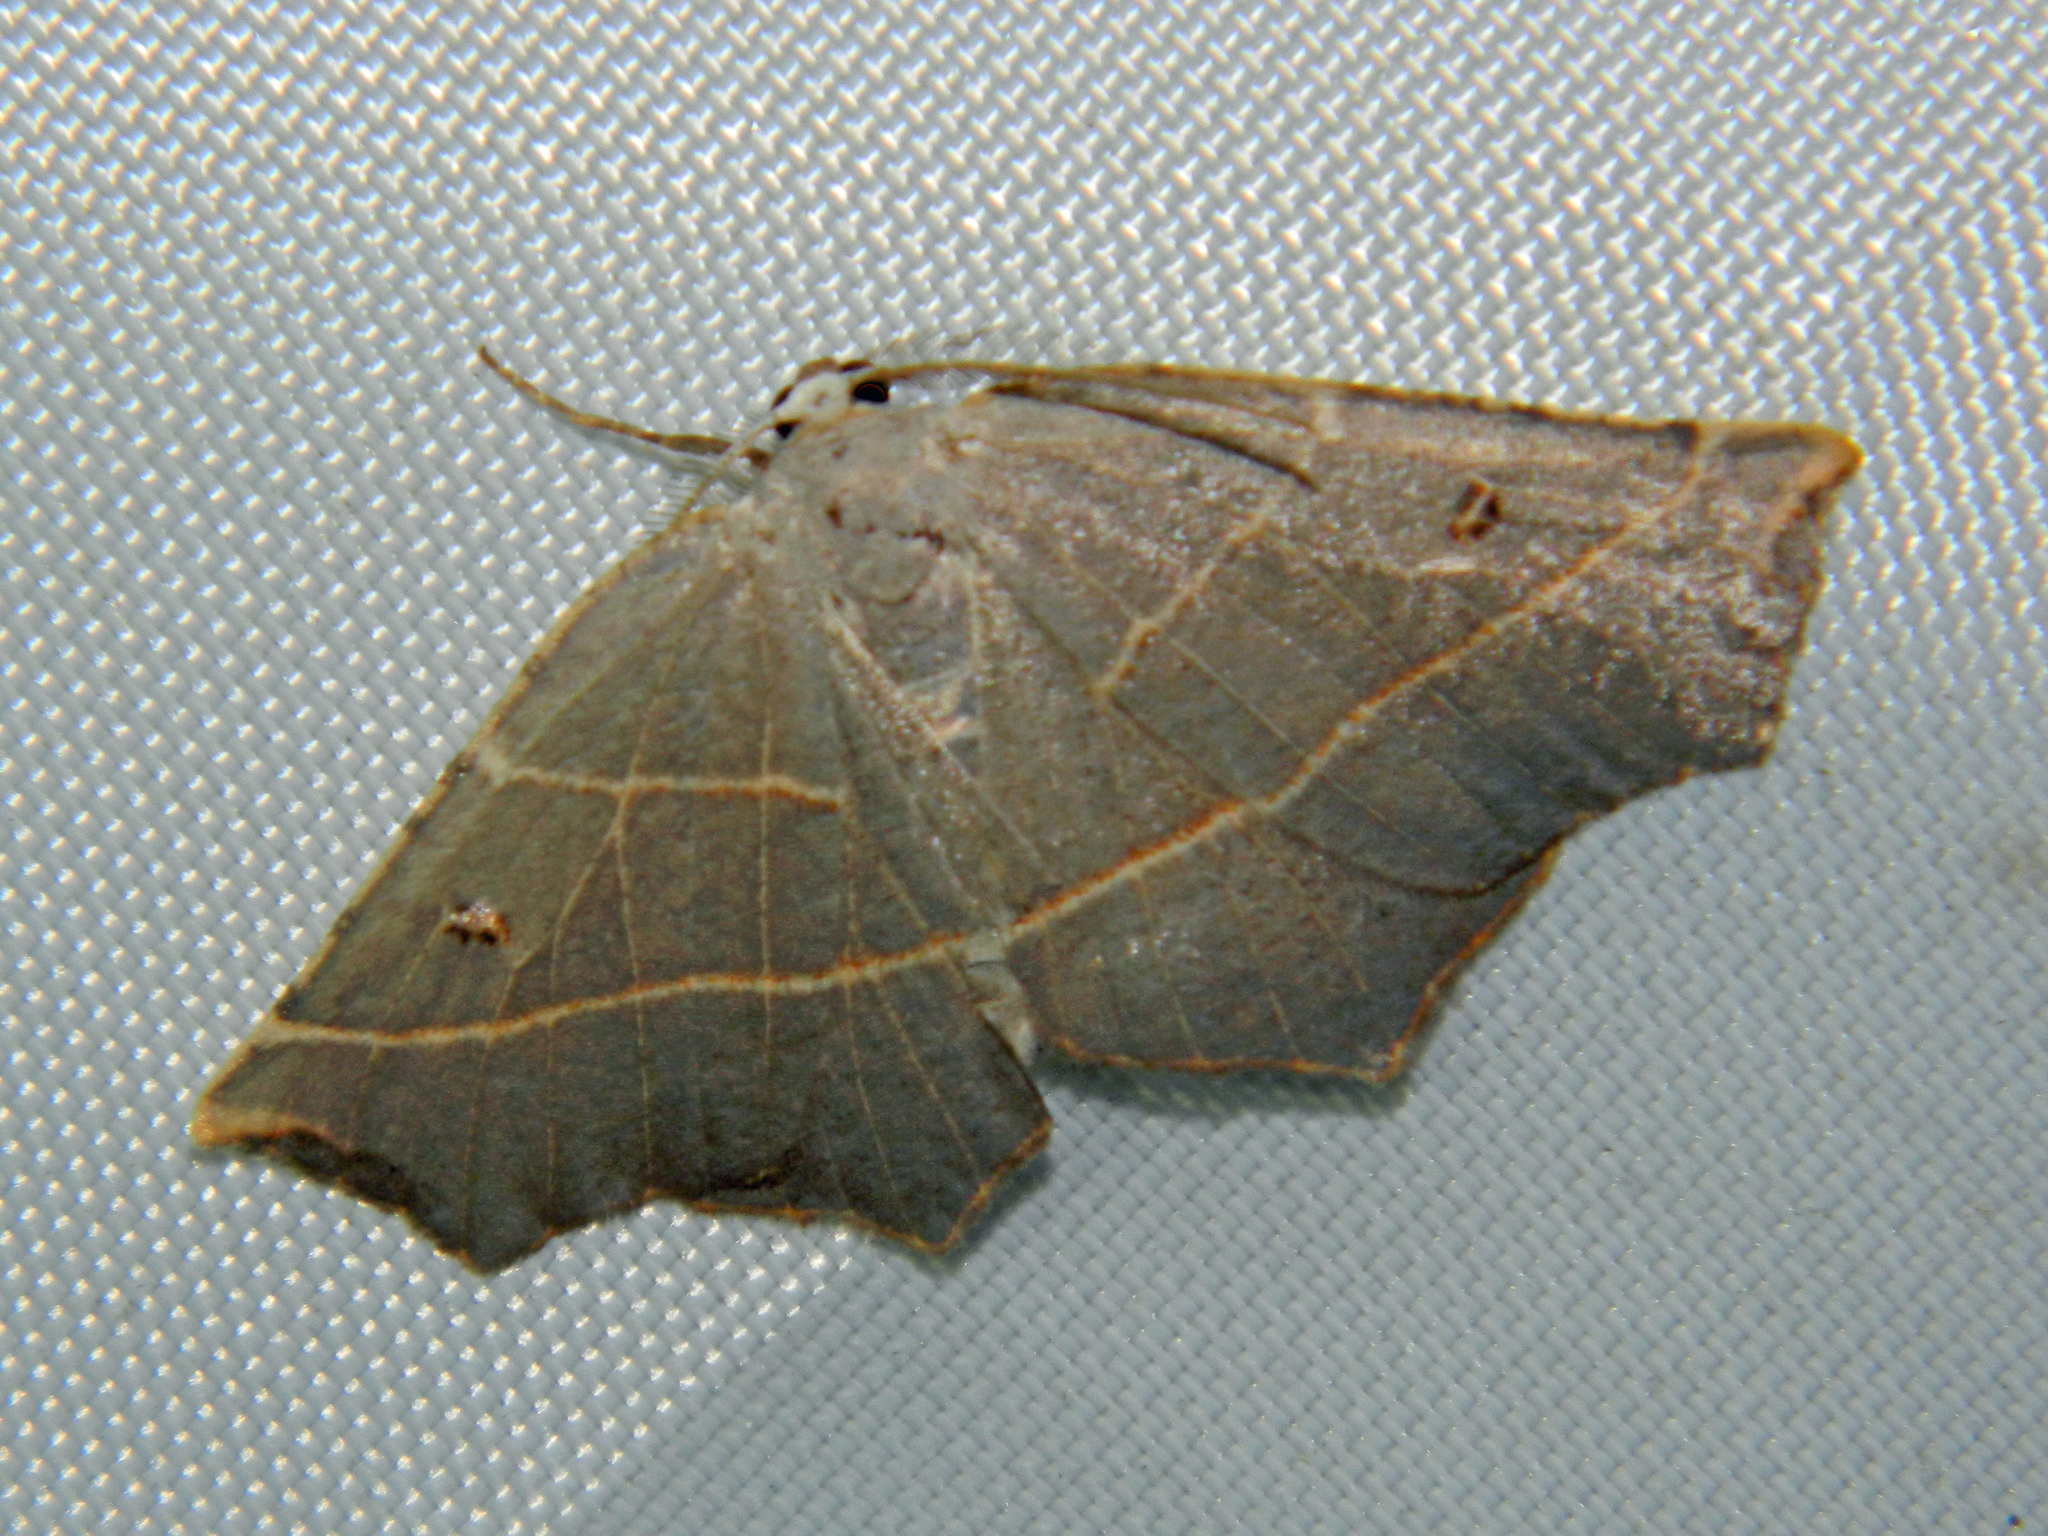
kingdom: Animalia
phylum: Arthropoda
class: Insecta
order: Lepidoptera
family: Geometridae
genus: Metanema
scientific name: Metanema inatomaria
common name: Pale metanema
